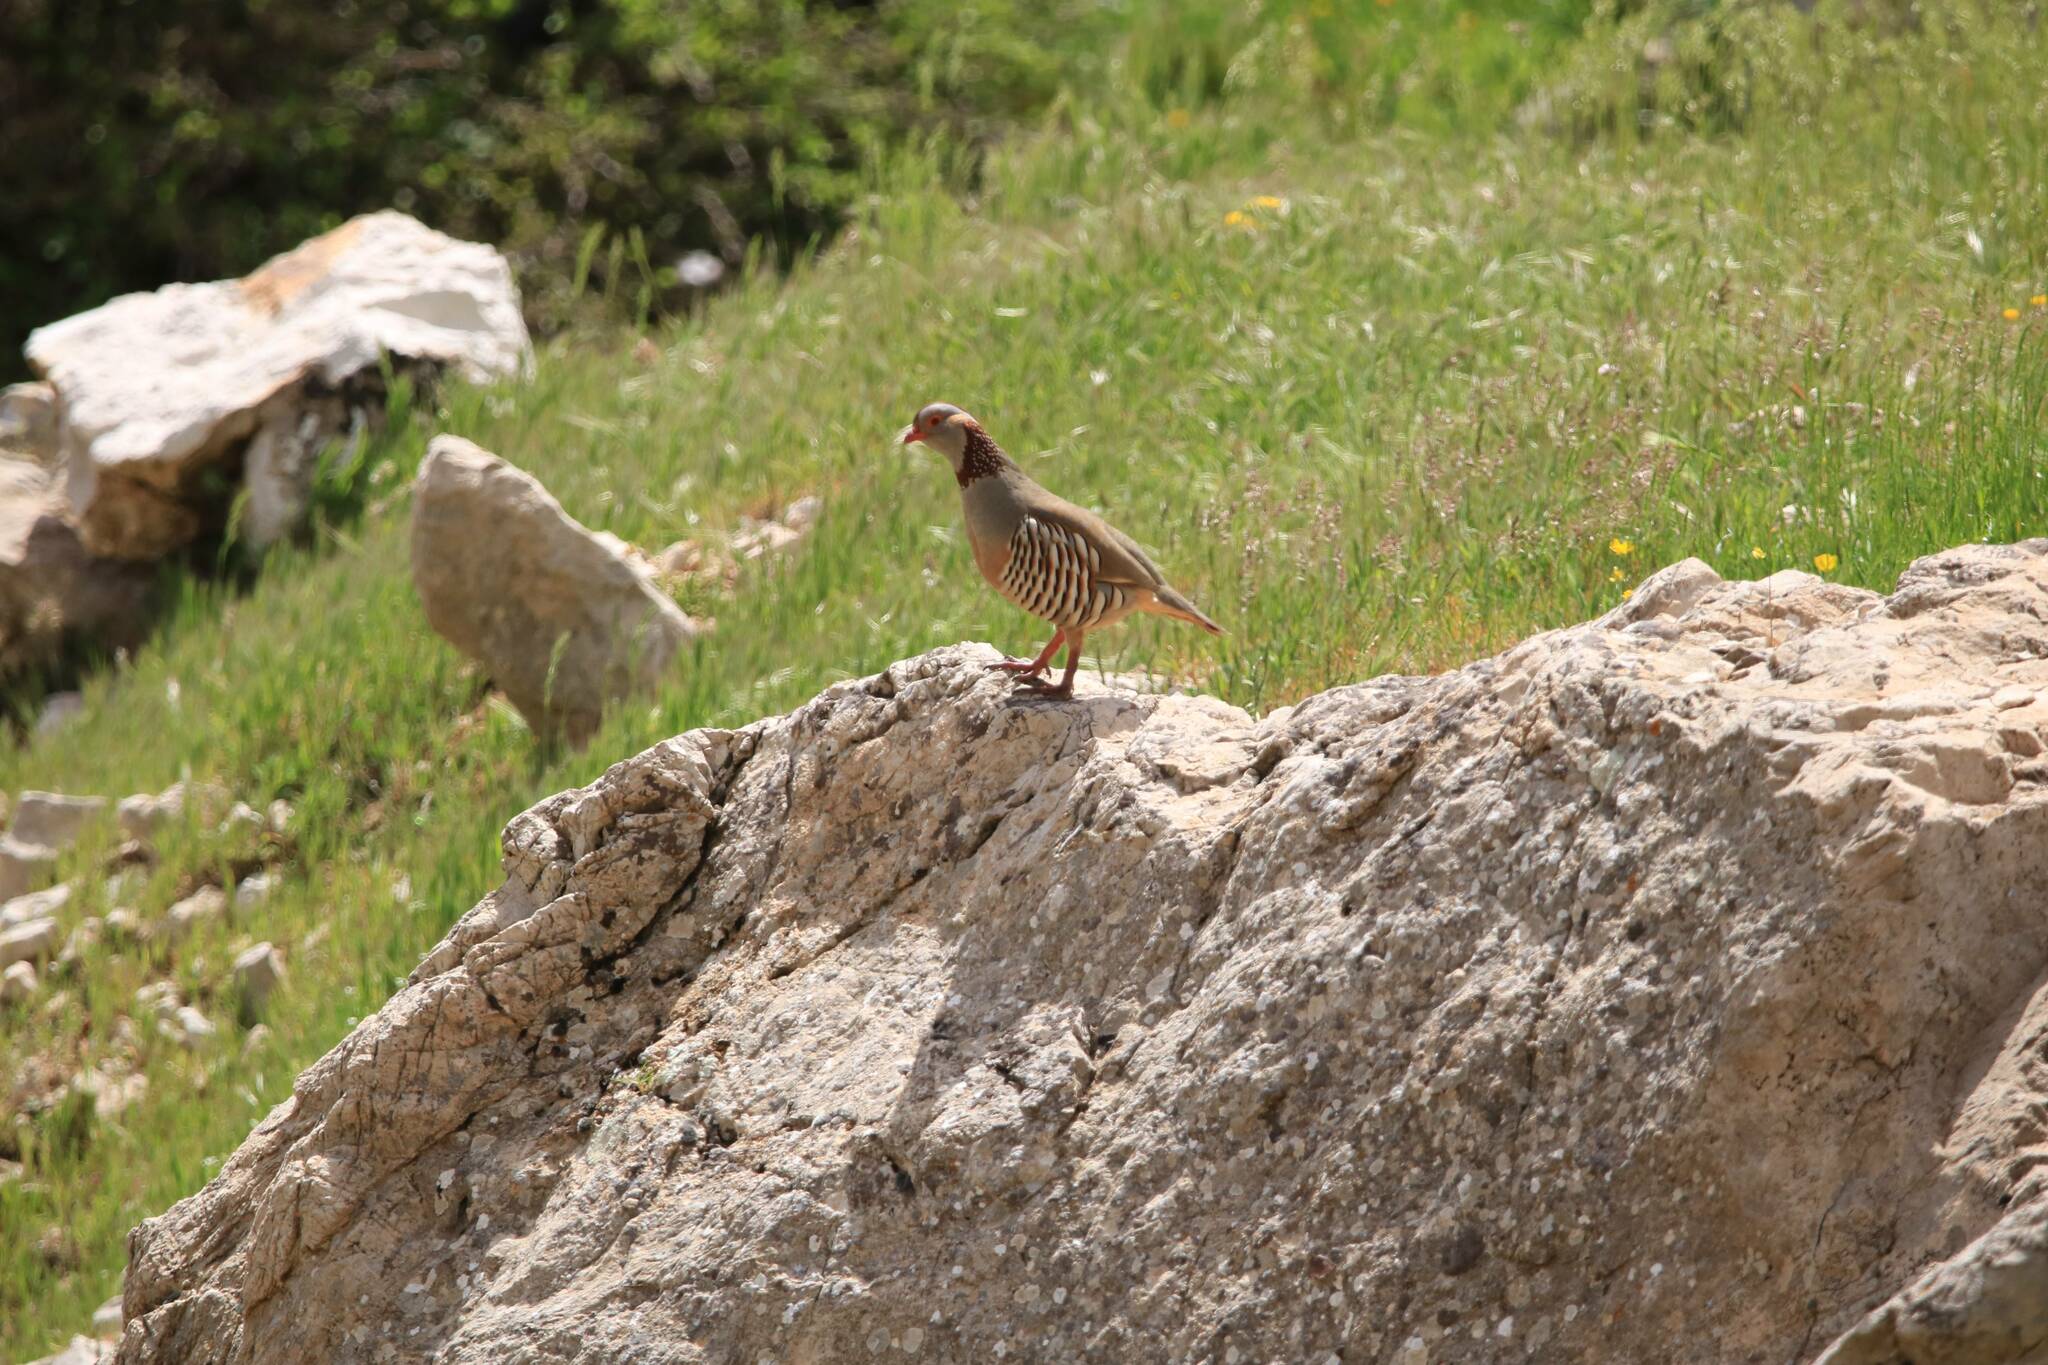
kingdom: Animalia
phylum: Chordata
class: Aves
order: Galliformes
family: Phasianidae
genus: Alectoris
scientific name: Alectoris barbara
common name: Barbary partridge
